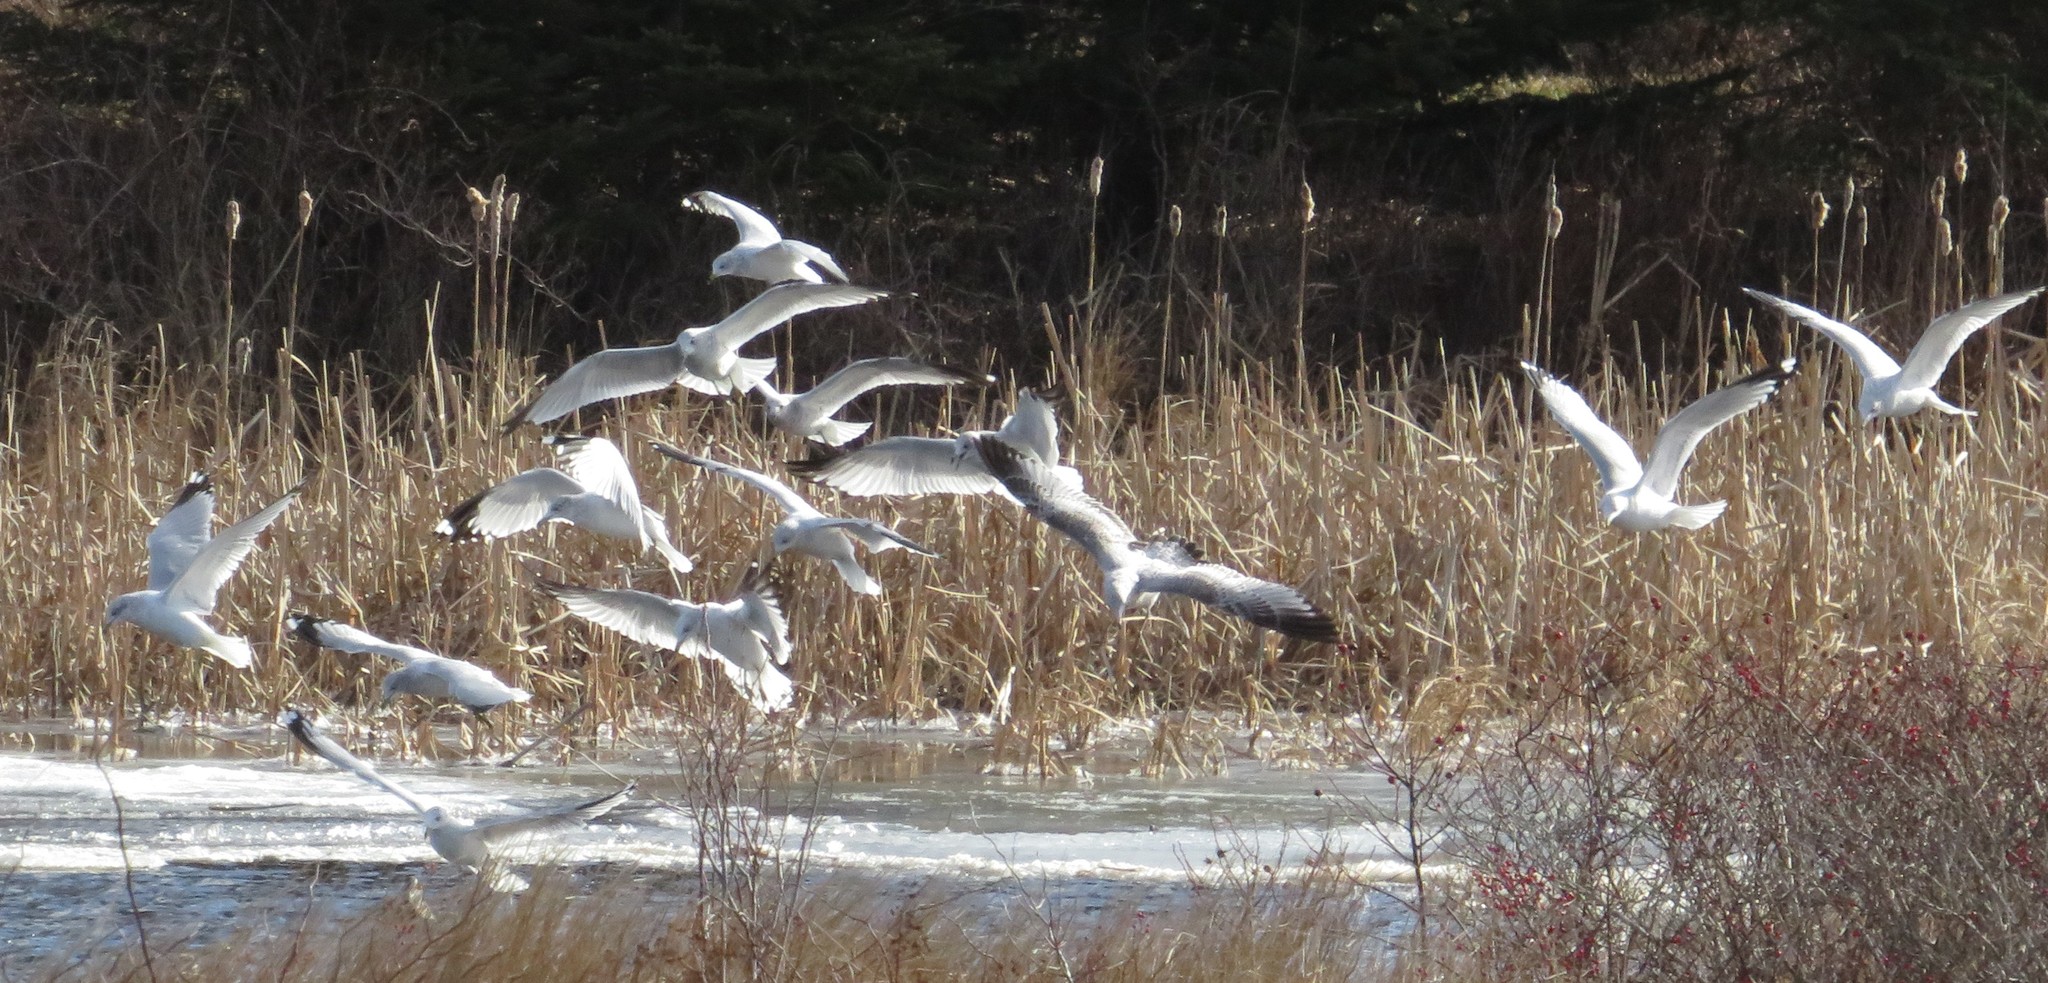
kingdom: Animalia
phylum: Chordata
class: Aves
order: Charadriiformes
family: Laridae
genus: Larus
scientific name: Larus delawarensis
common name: Ring-billed gull
